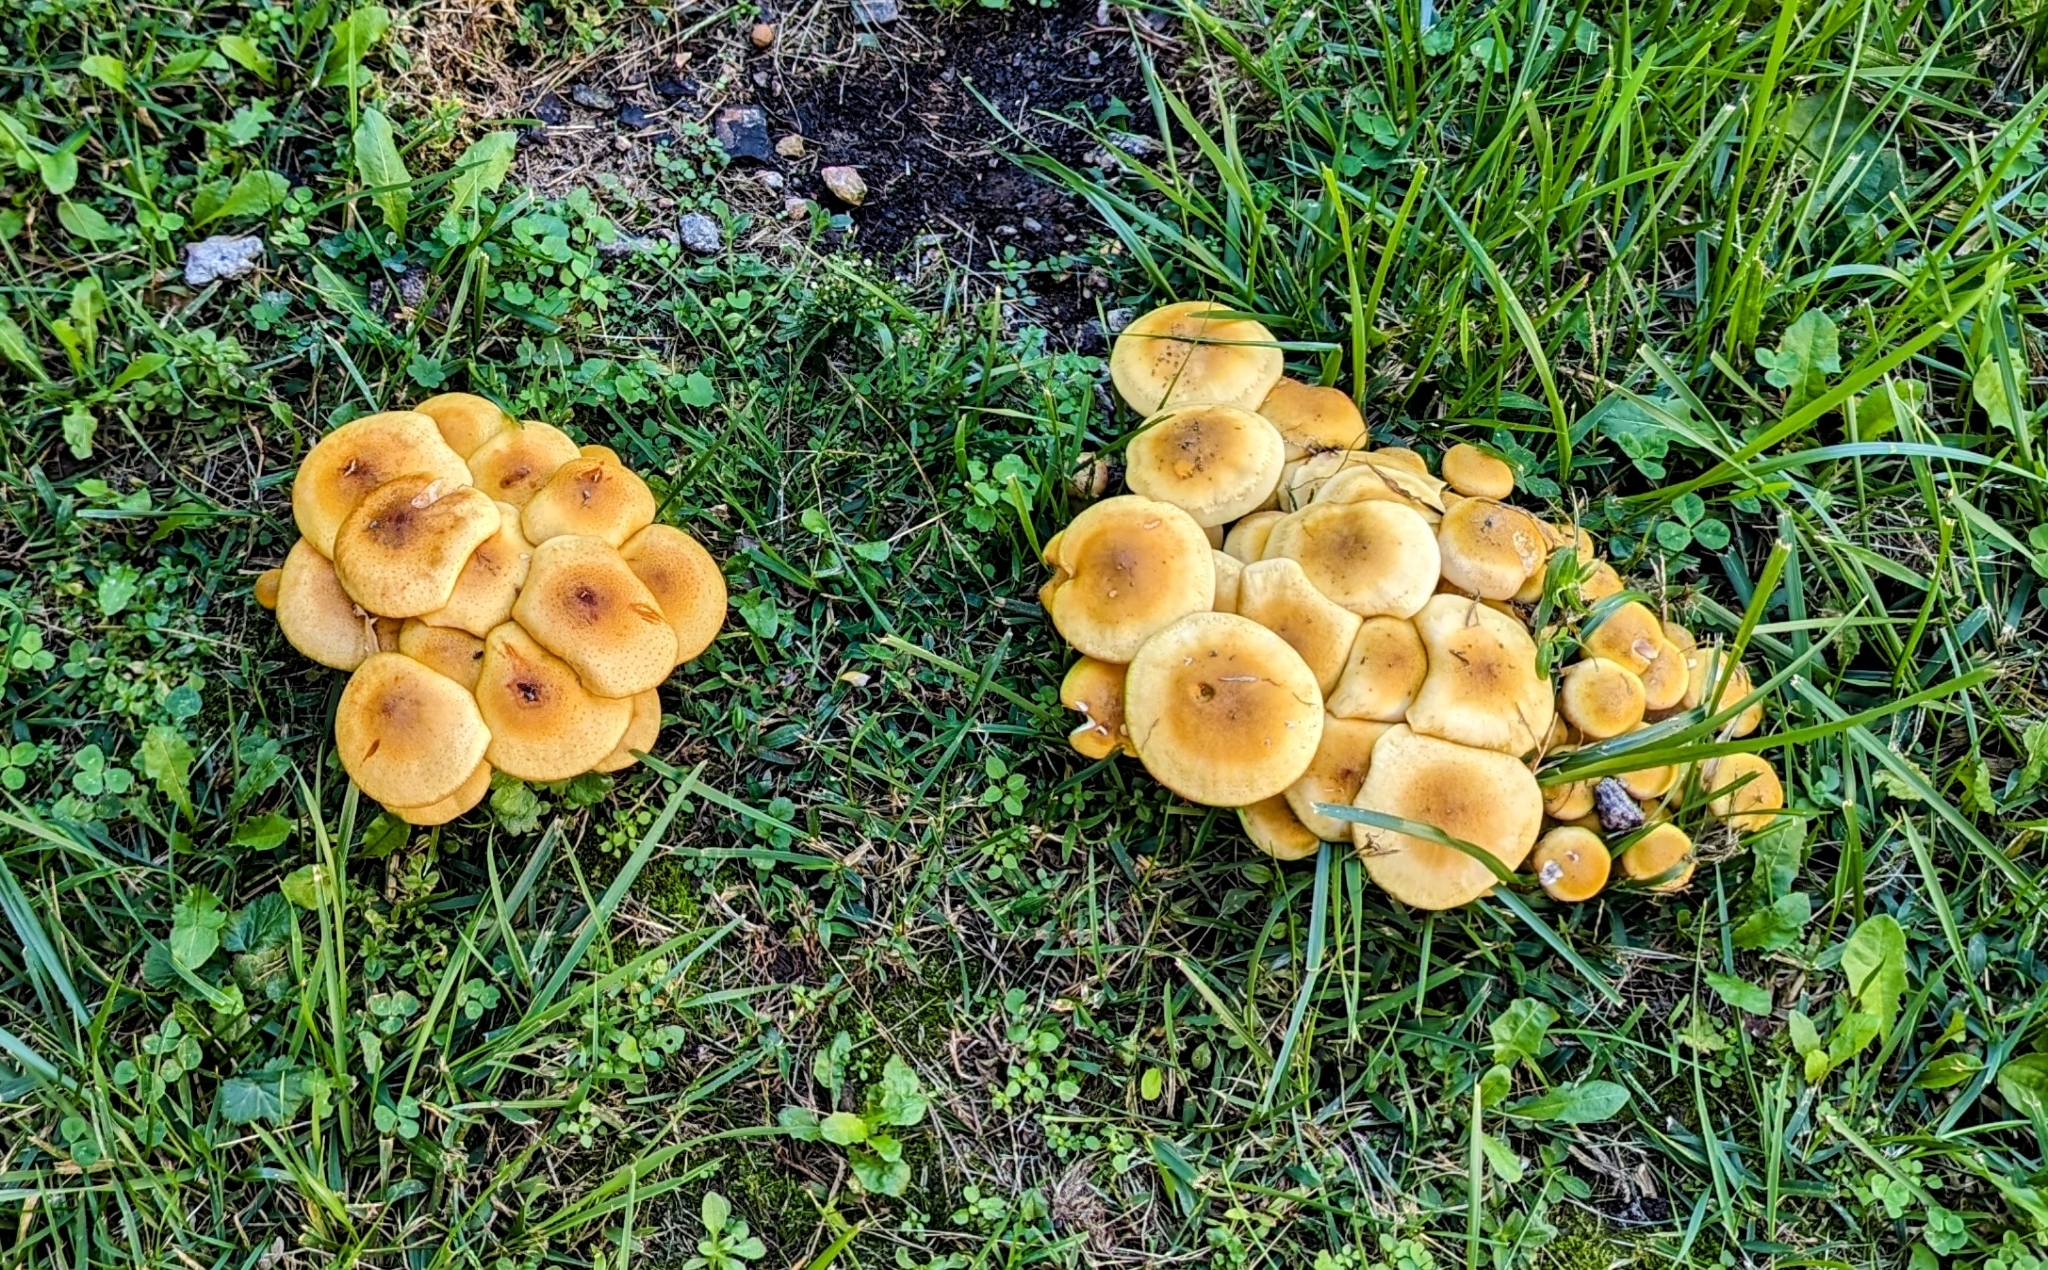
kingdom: Fungi
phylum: Basidiomycota
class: Agaricomycetes
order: Agaricales
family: Physalacriaceae
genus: Armillaria
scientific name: Armillaria mellea
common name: Honey fungus
